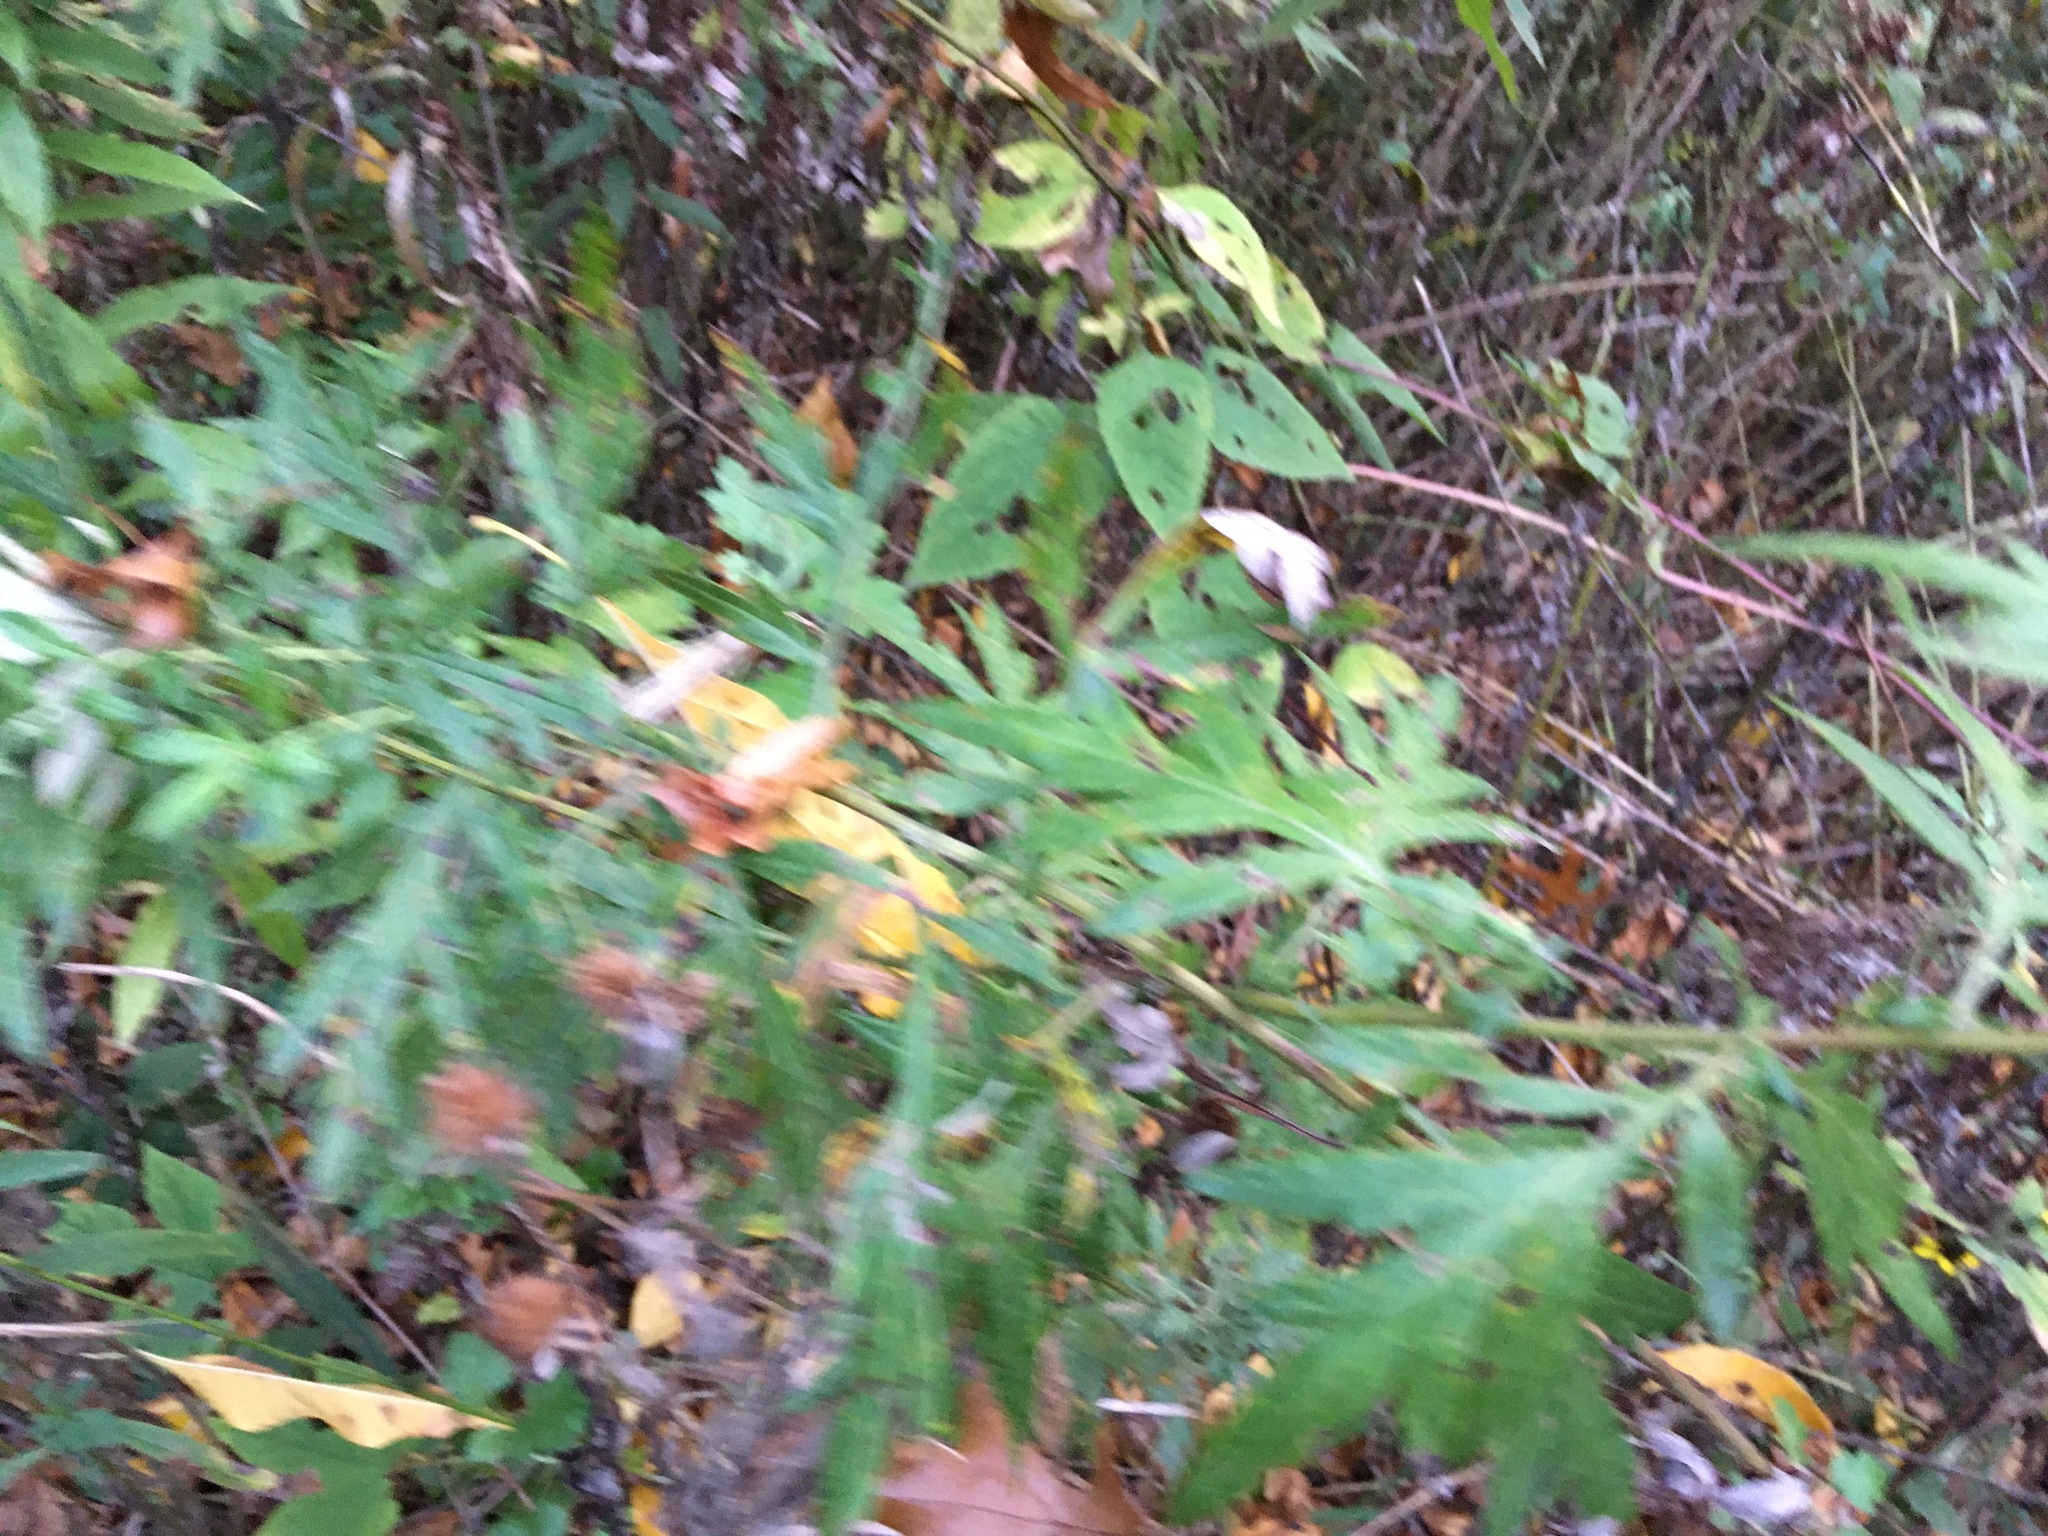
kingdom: Plantae
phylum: Tracheophyta
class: Magnoliopsida
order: Asterales
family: Asteraceae
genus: Artemisia
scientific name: Artemisia vulgaris
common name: Mugwort
